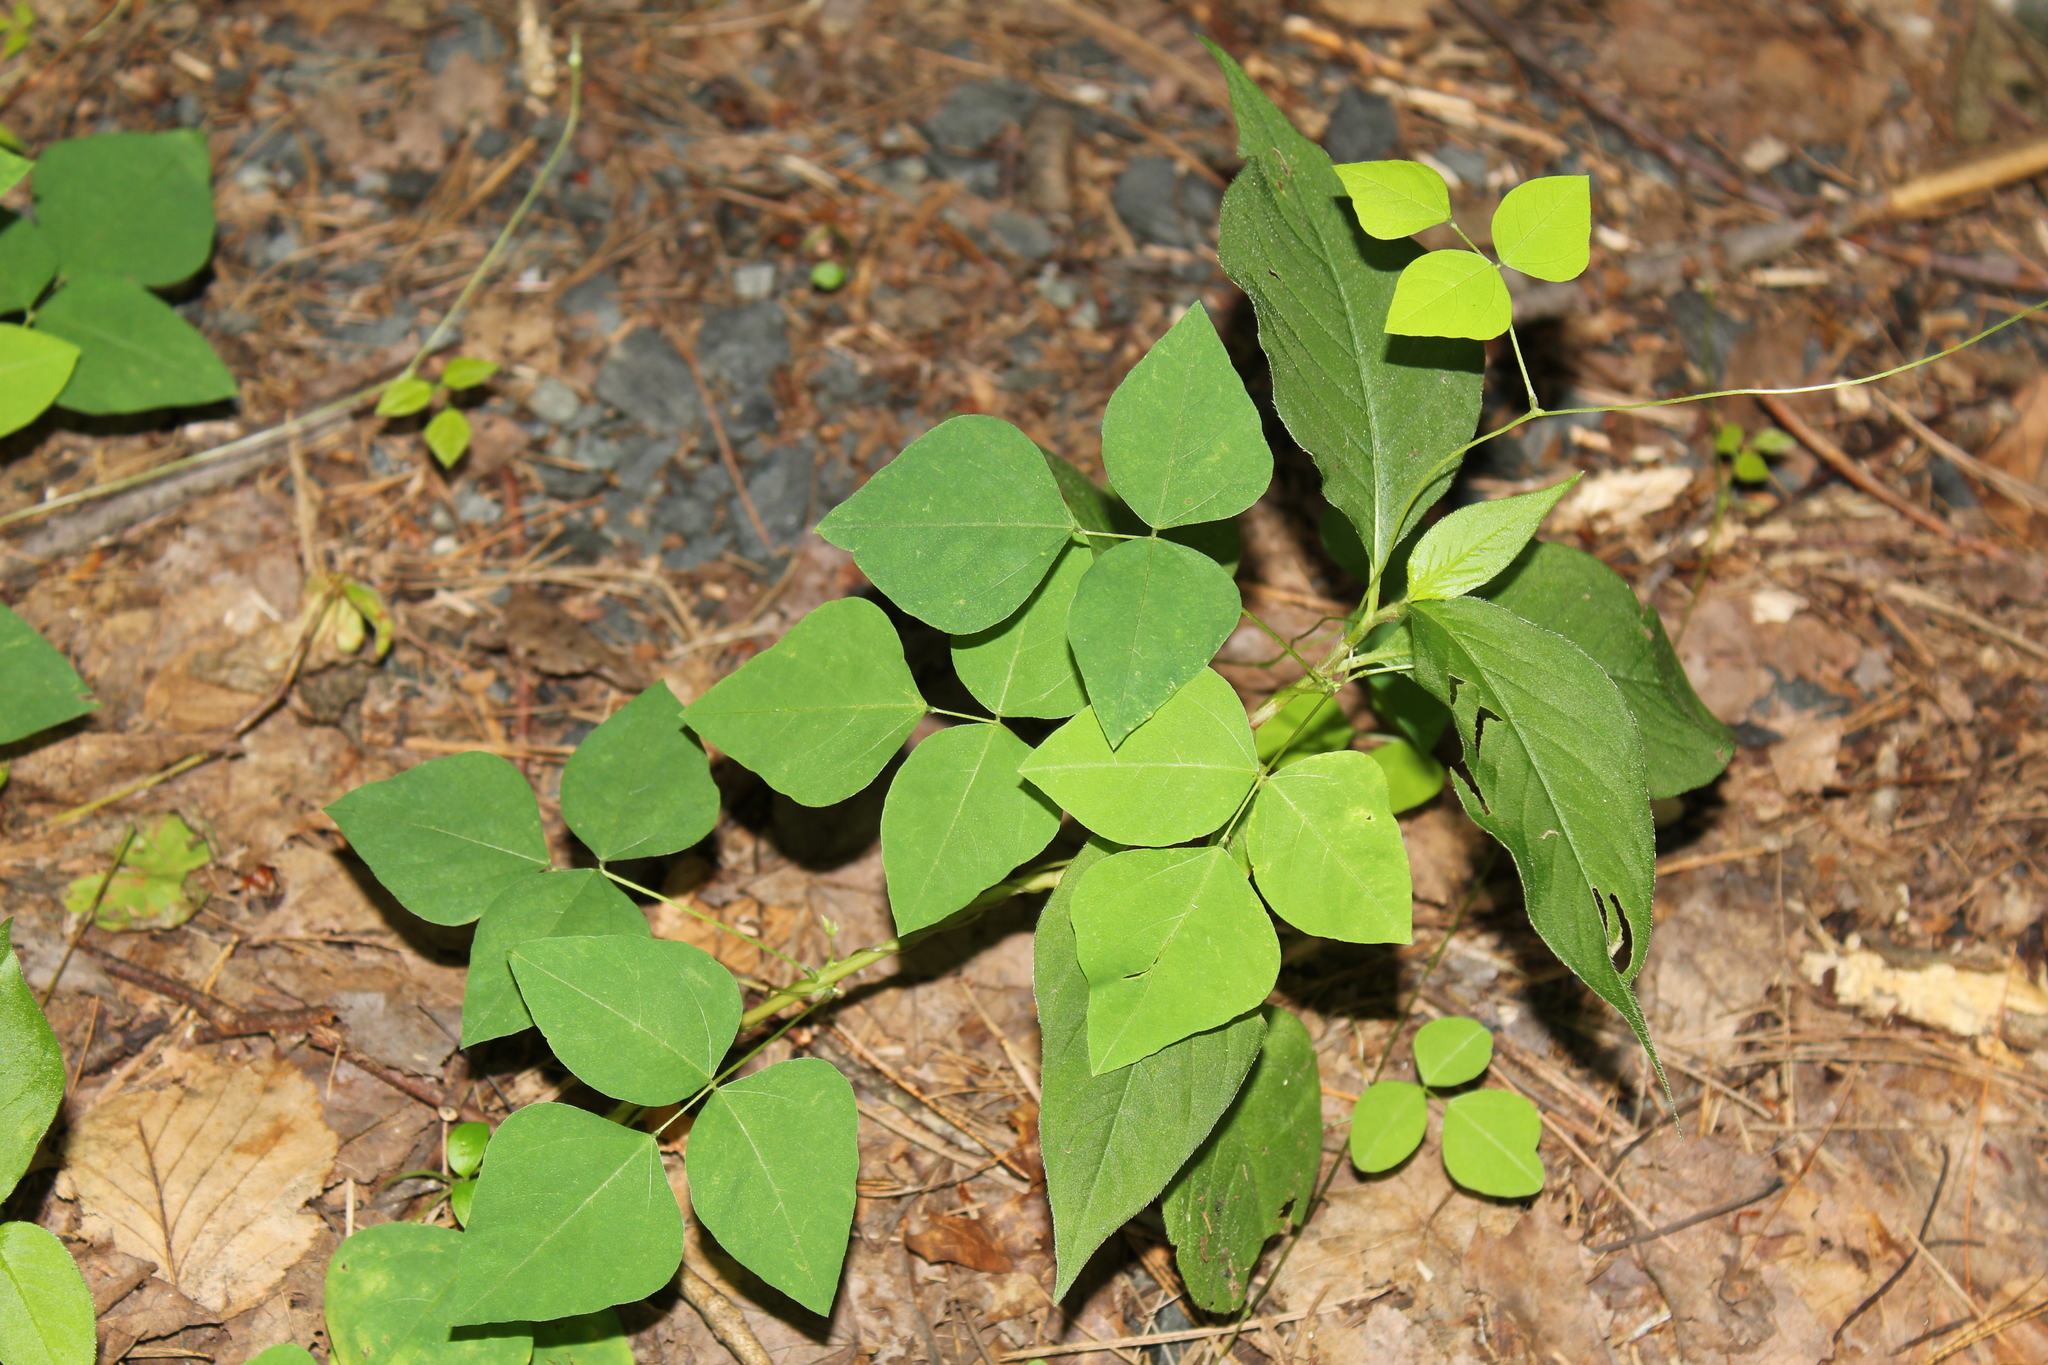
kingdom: Plantae
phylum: Tracheophyta
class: Magnoliopsida
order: Fabales
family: Fabaceae
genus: Amphicarpaea
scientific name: Amphicarpaea bracteata
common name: American hog peanut
